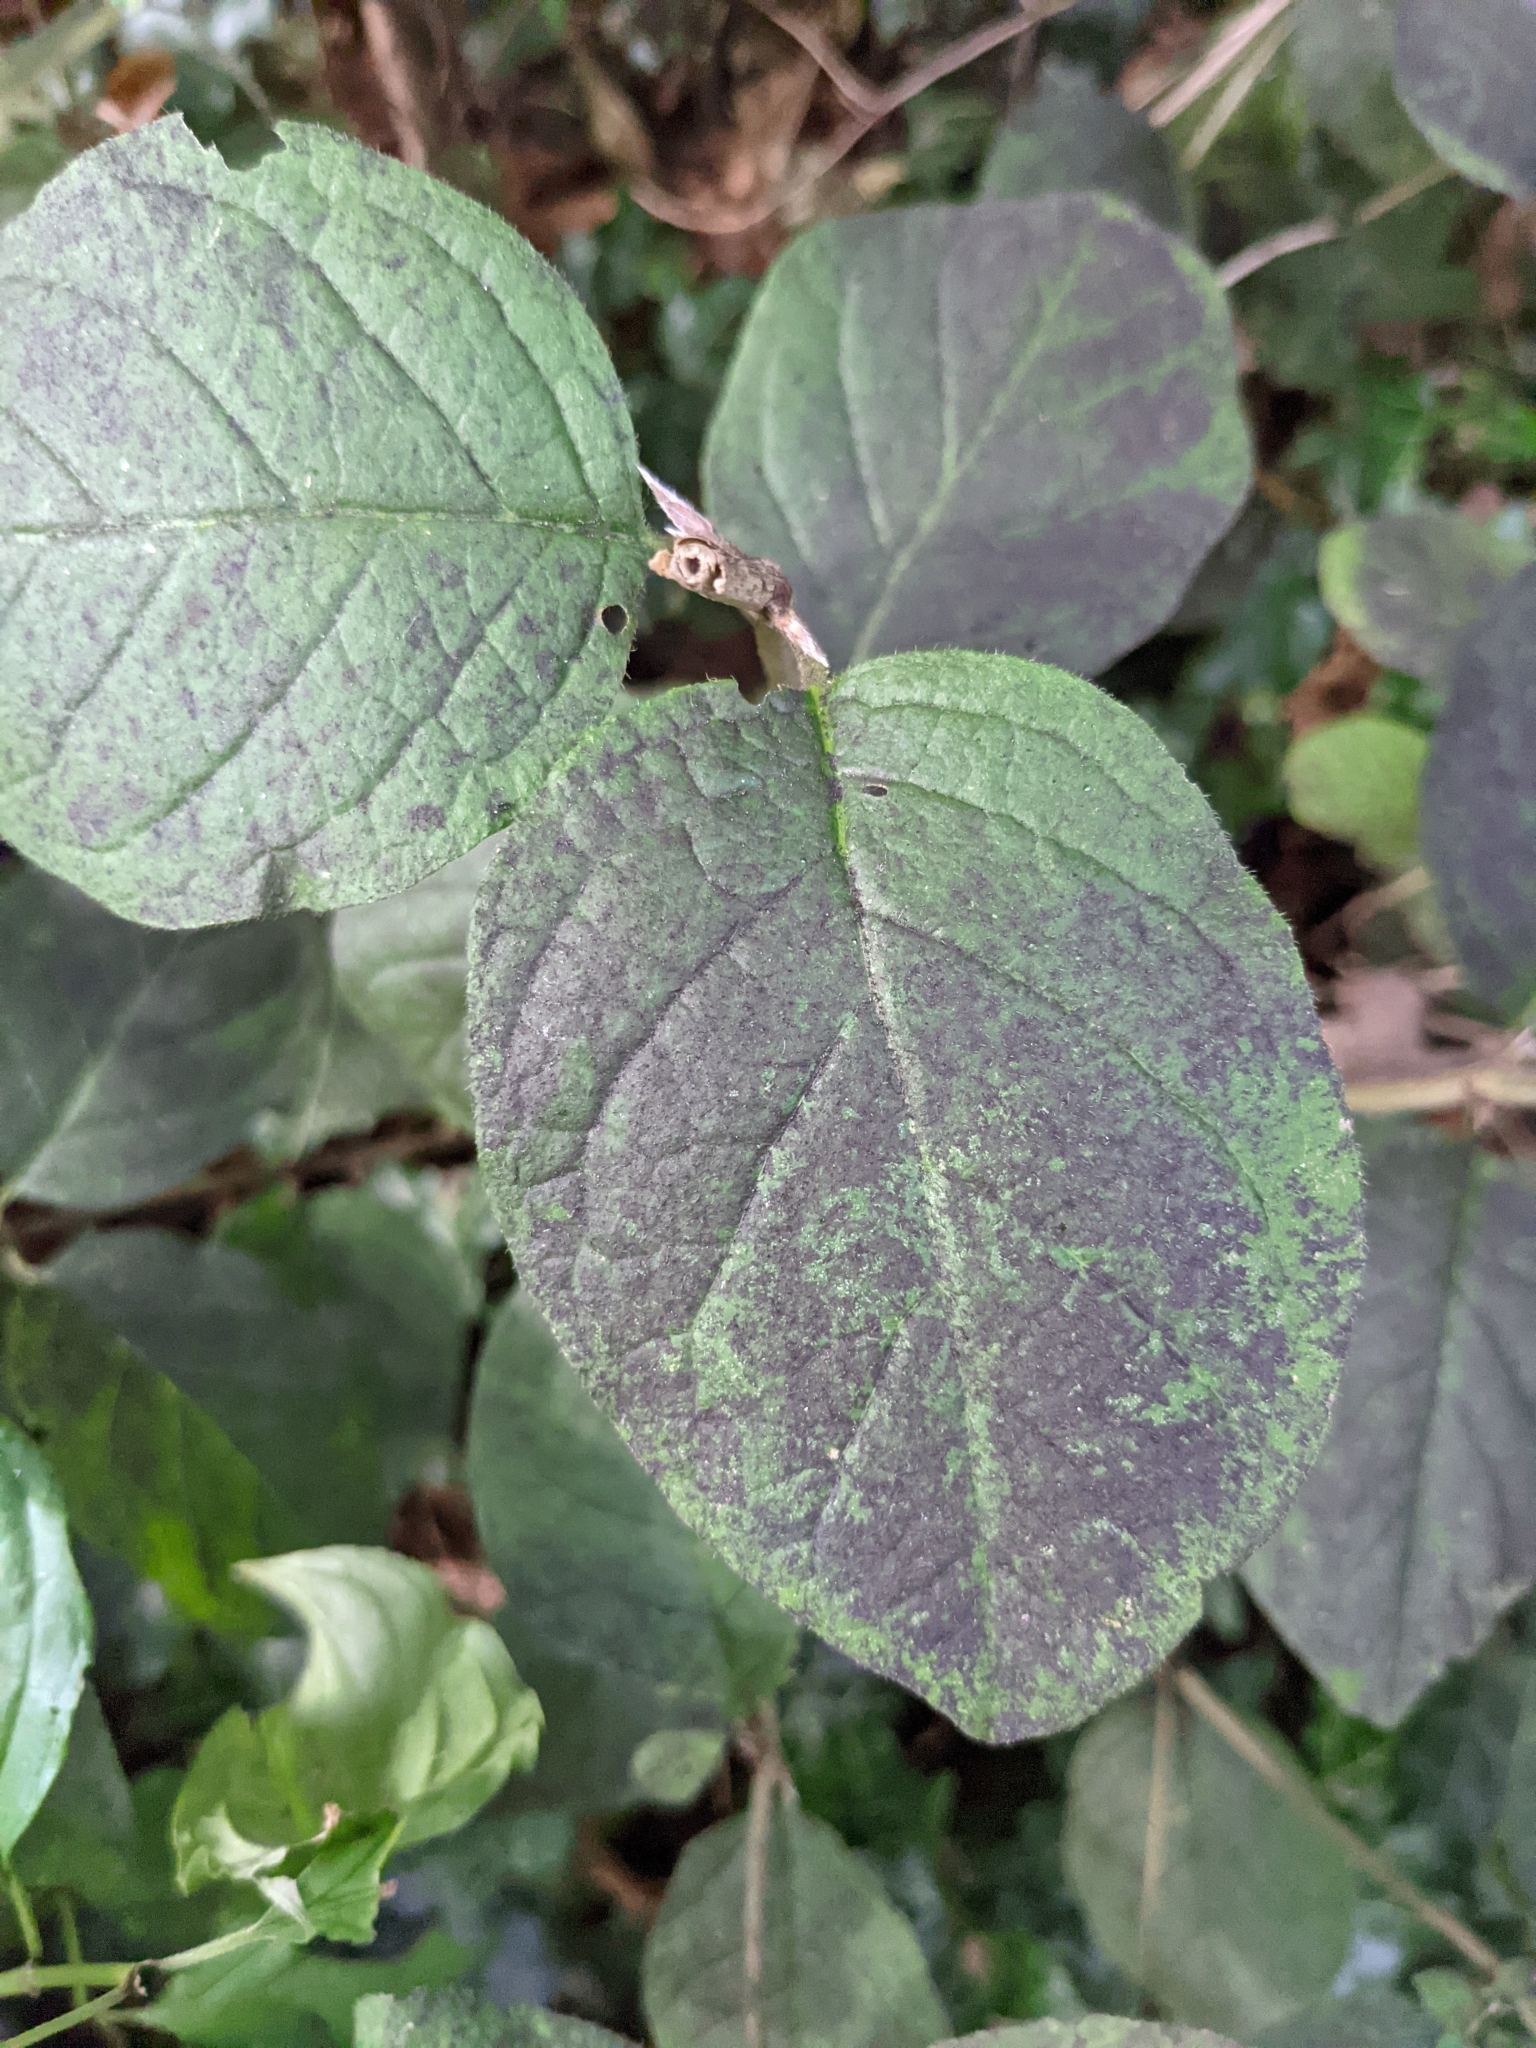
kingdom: Plantae
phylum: Tracheophyta
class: Magnoliopsida
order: Dipsacales
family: Caprifoliaceae
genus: Lonicera
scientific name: Lonicera xylosteum
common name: Fly honeysuckle
